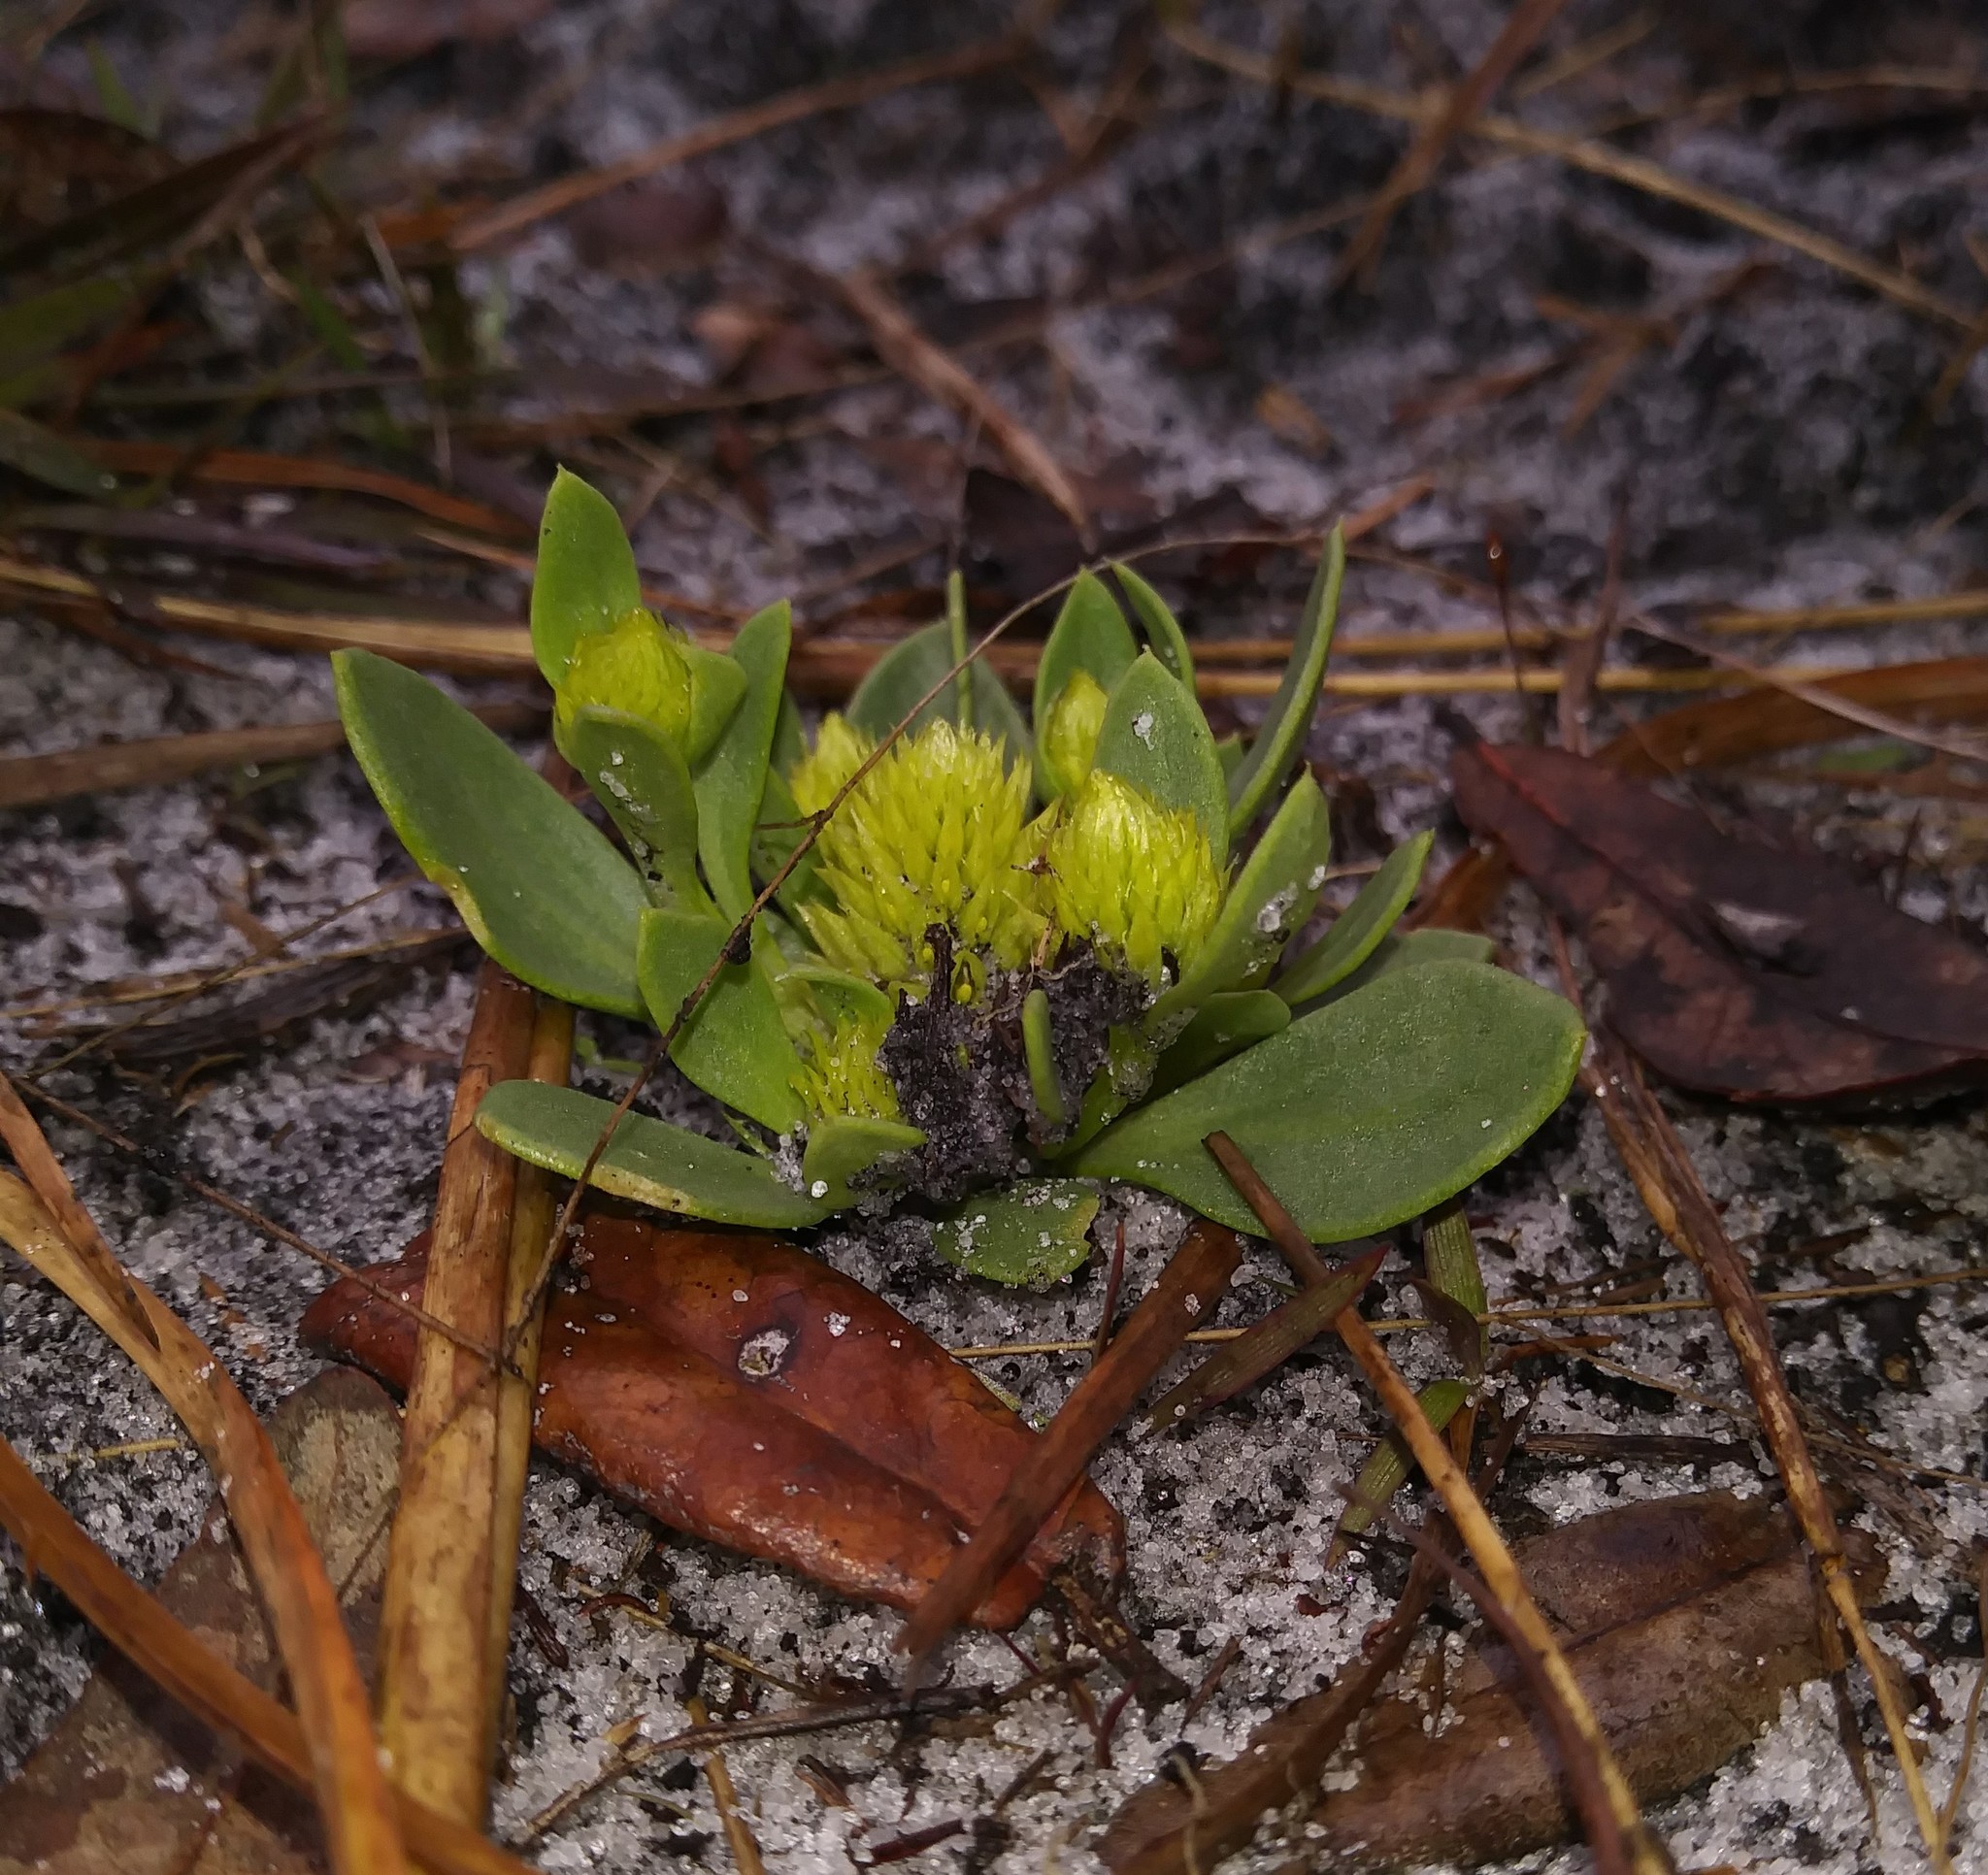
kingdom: Plantae
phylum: Tracheophyta
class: Magnoliopsida
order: Fabales
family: Polygalaceae
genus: Polygala
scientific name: Polygala nana
